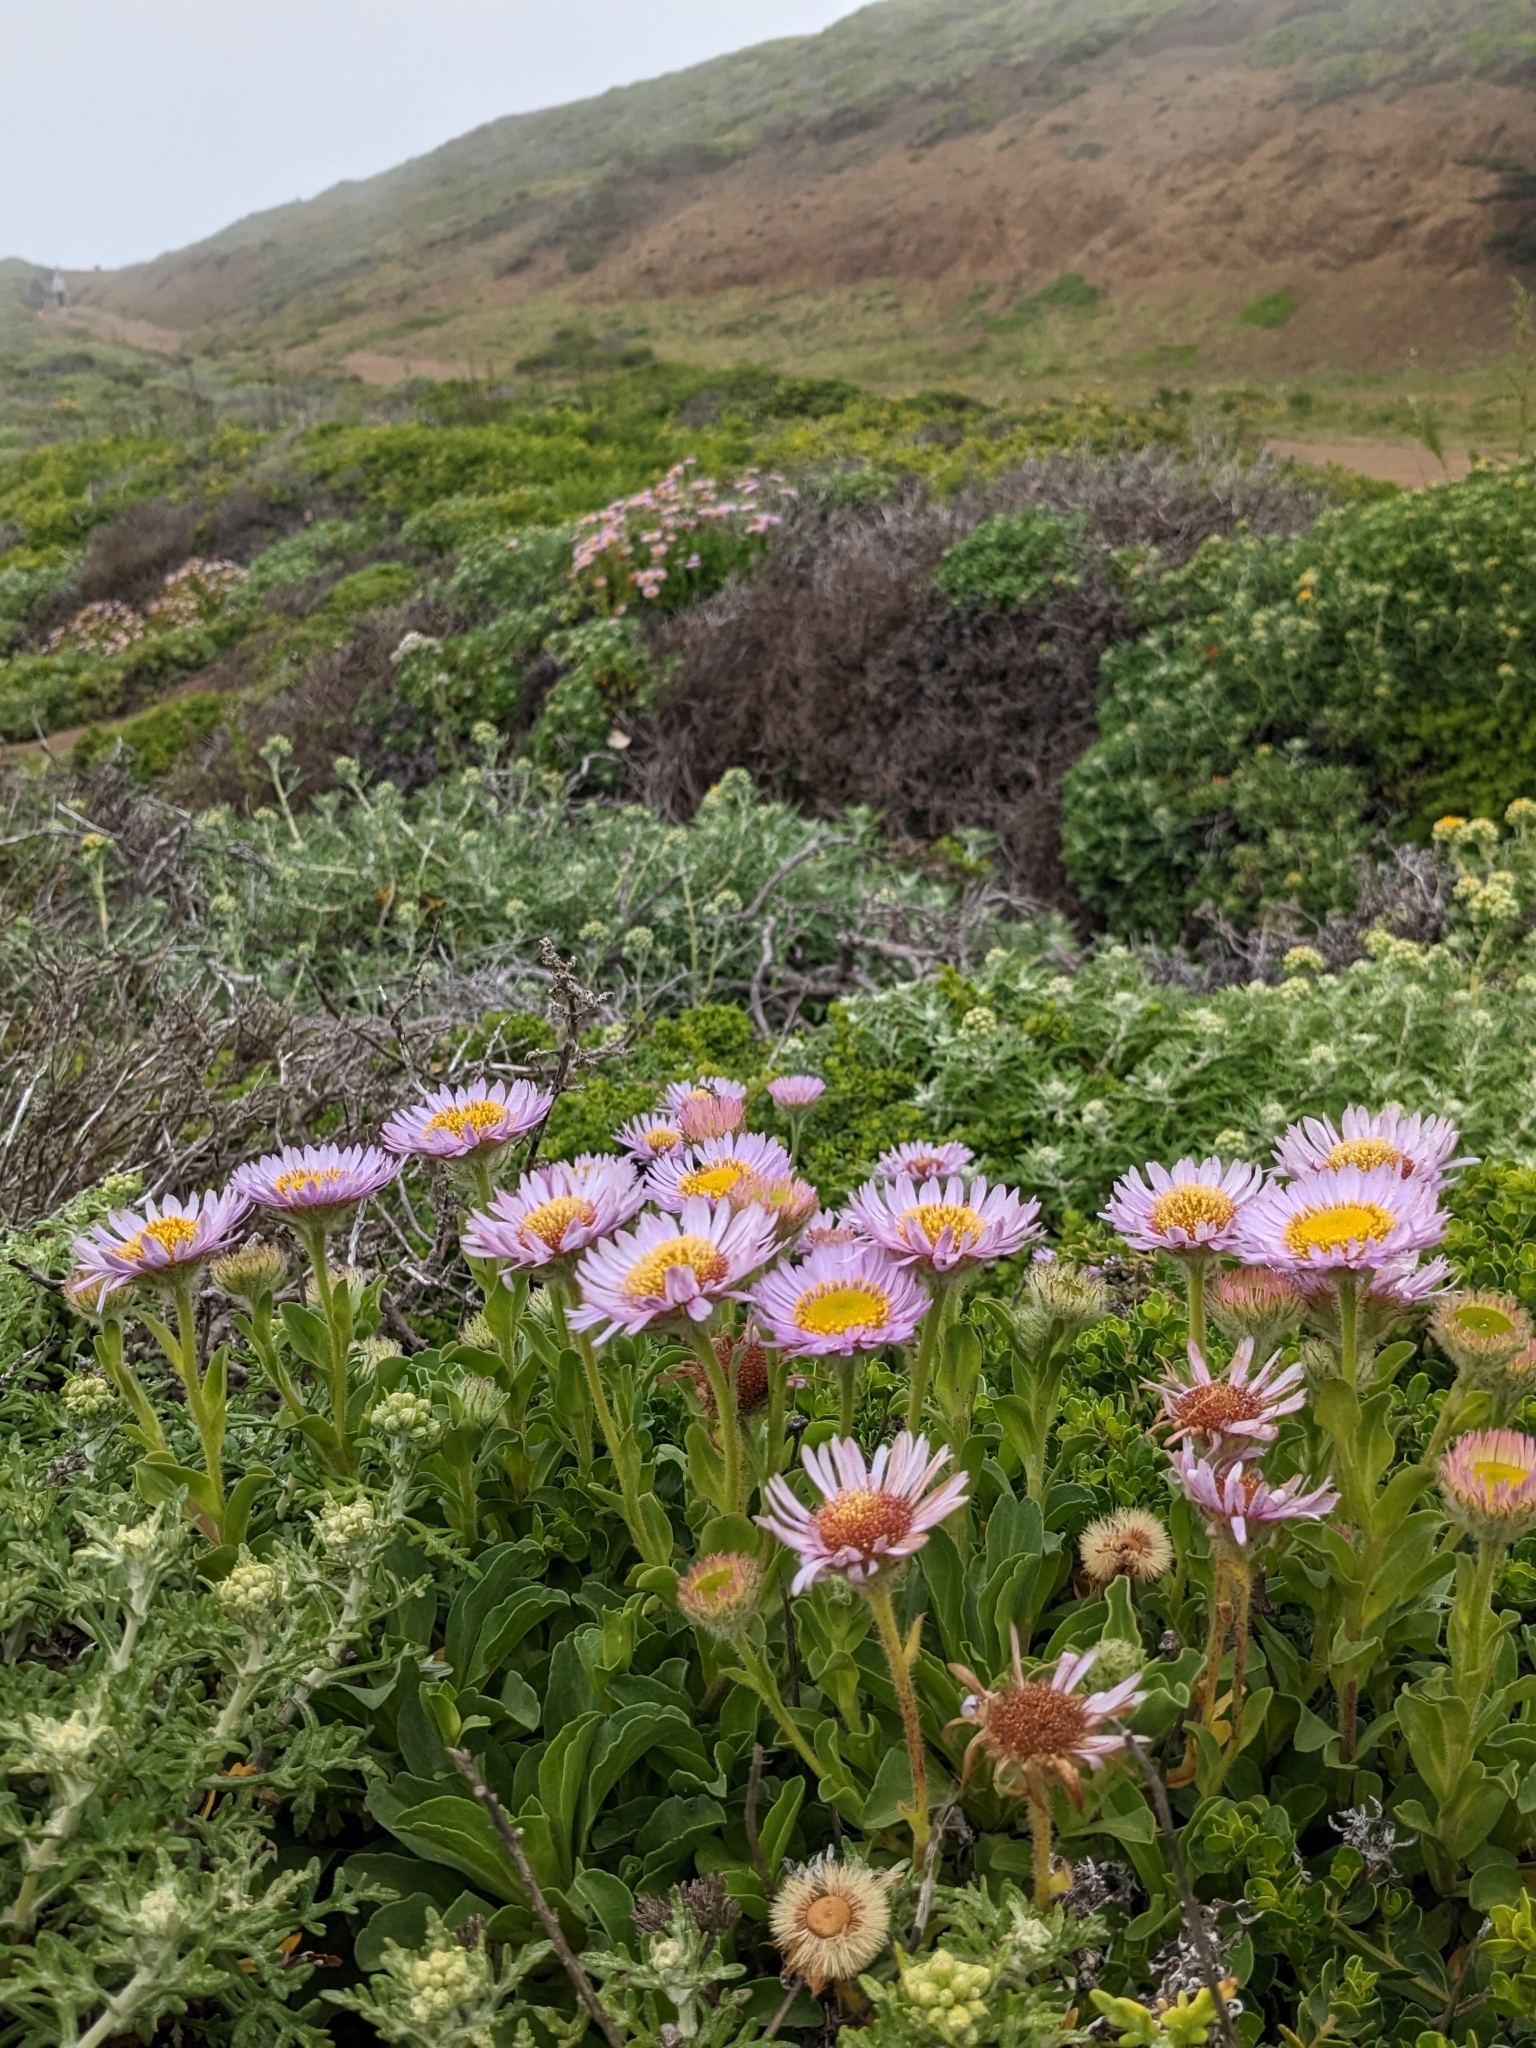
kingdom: Plantae
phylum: Tracheophyta
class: Magnoliopsida
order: Asterales
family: Asteraceae
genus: Erigeron
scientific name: Erigeron glaucus
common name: Seaside daisy
